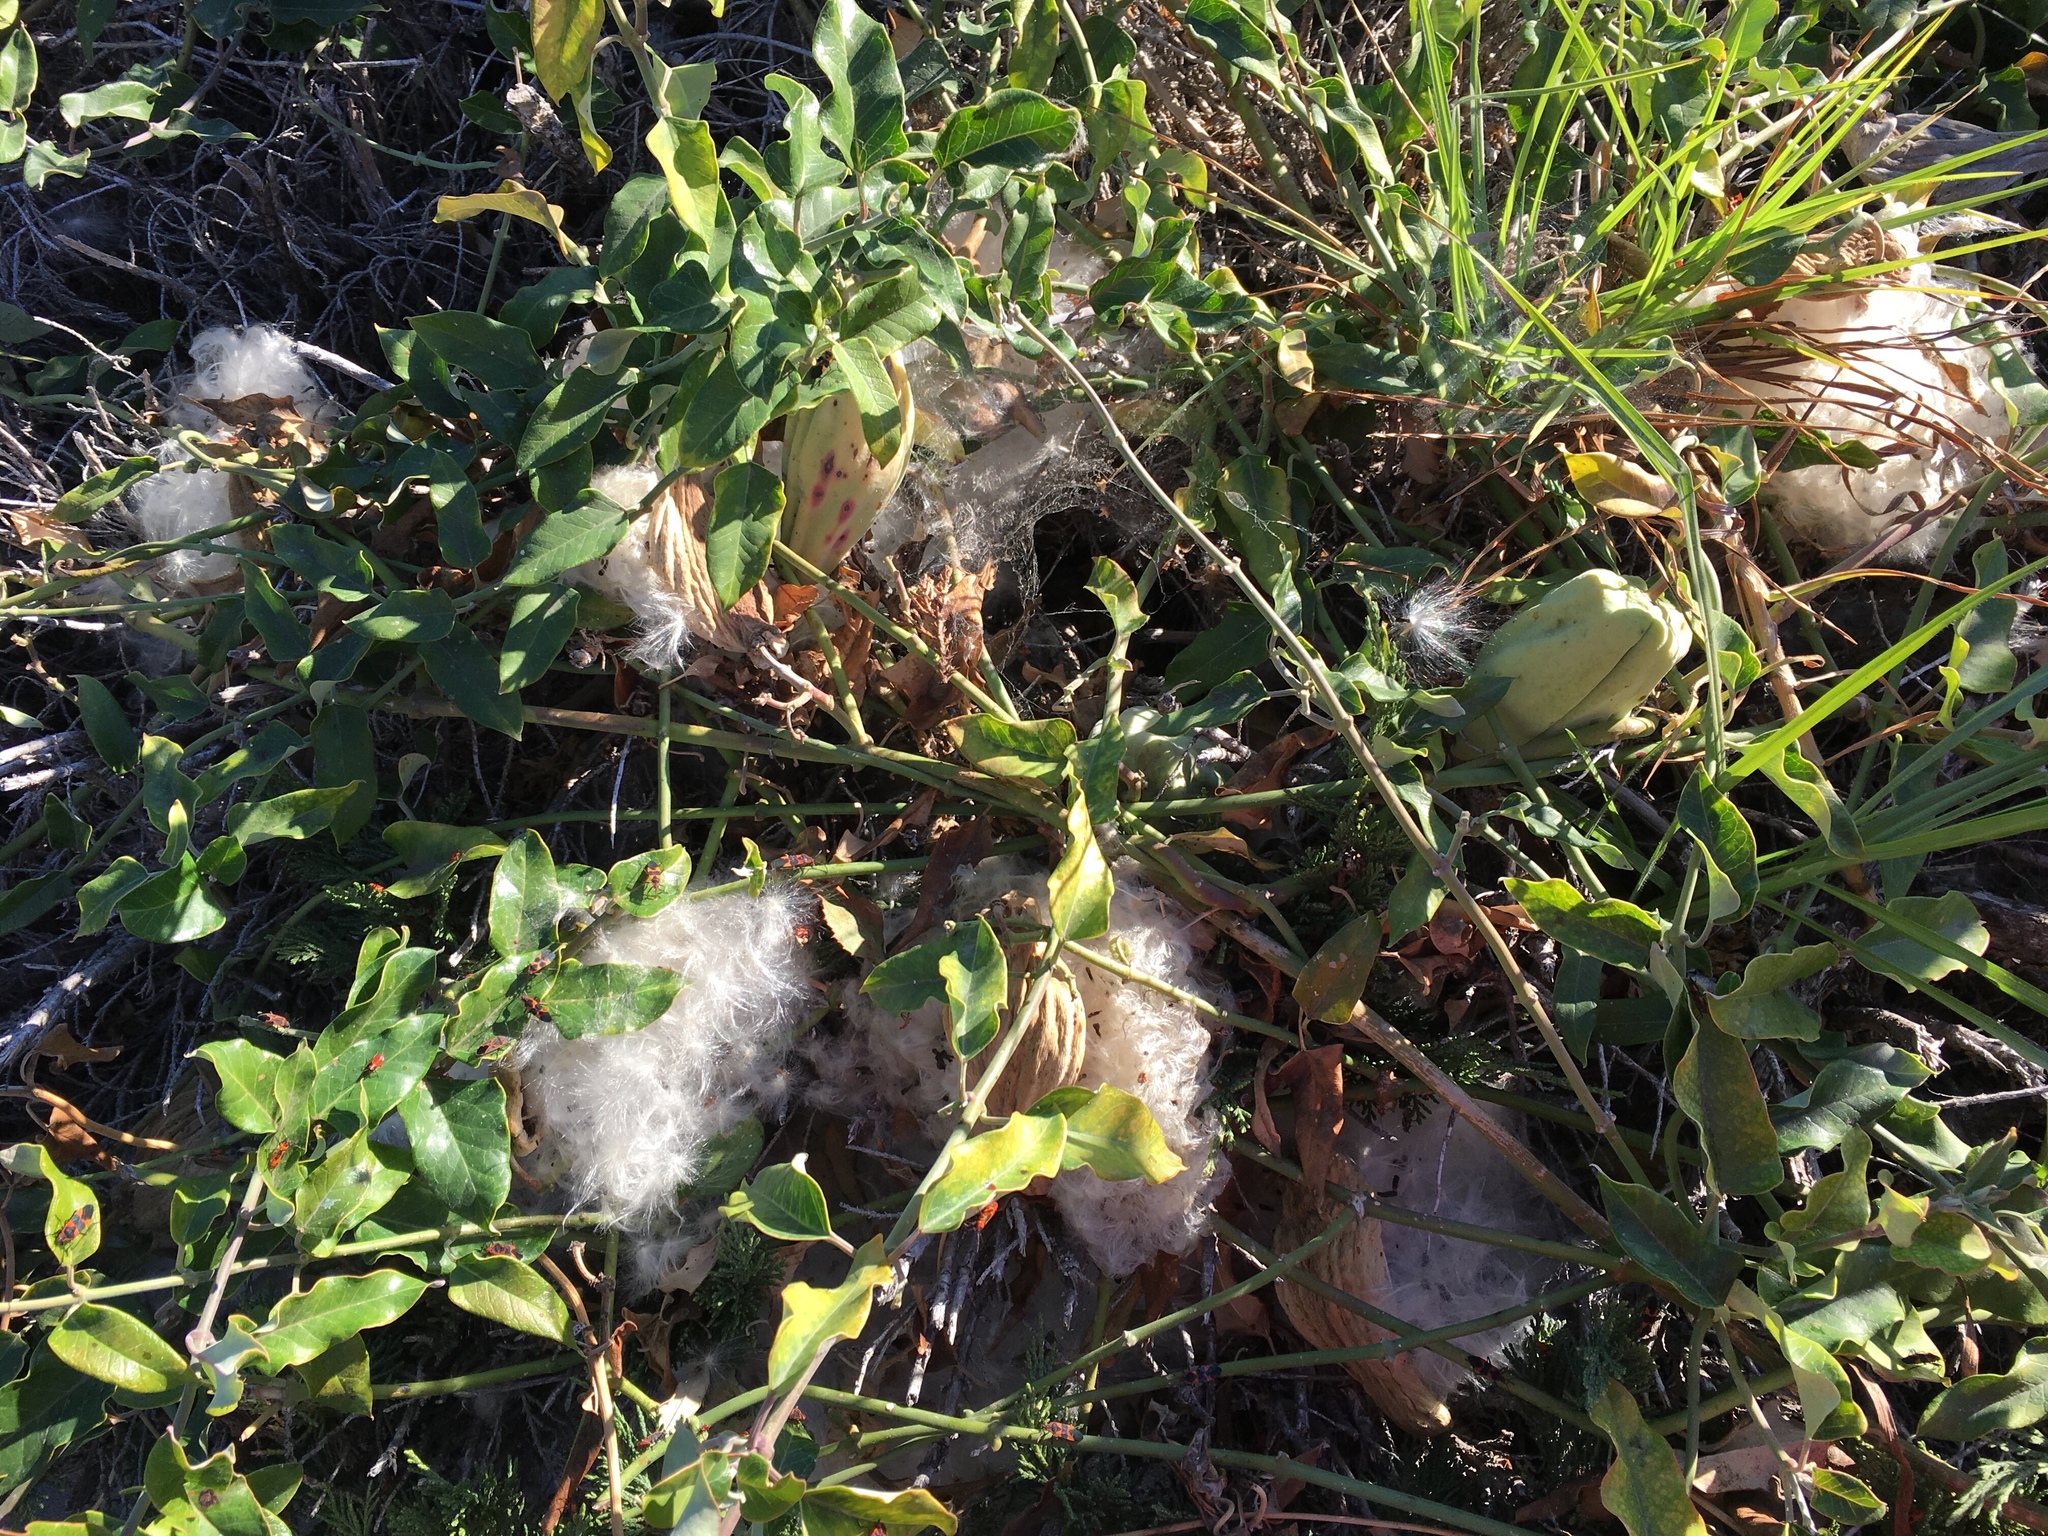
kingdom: Plantae
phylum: Tracheophyta
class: Magnoliopsida
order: Gentianales
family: Apocynaceae
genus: Araujia
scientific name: Araujia sericifera
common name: White bladderflower
